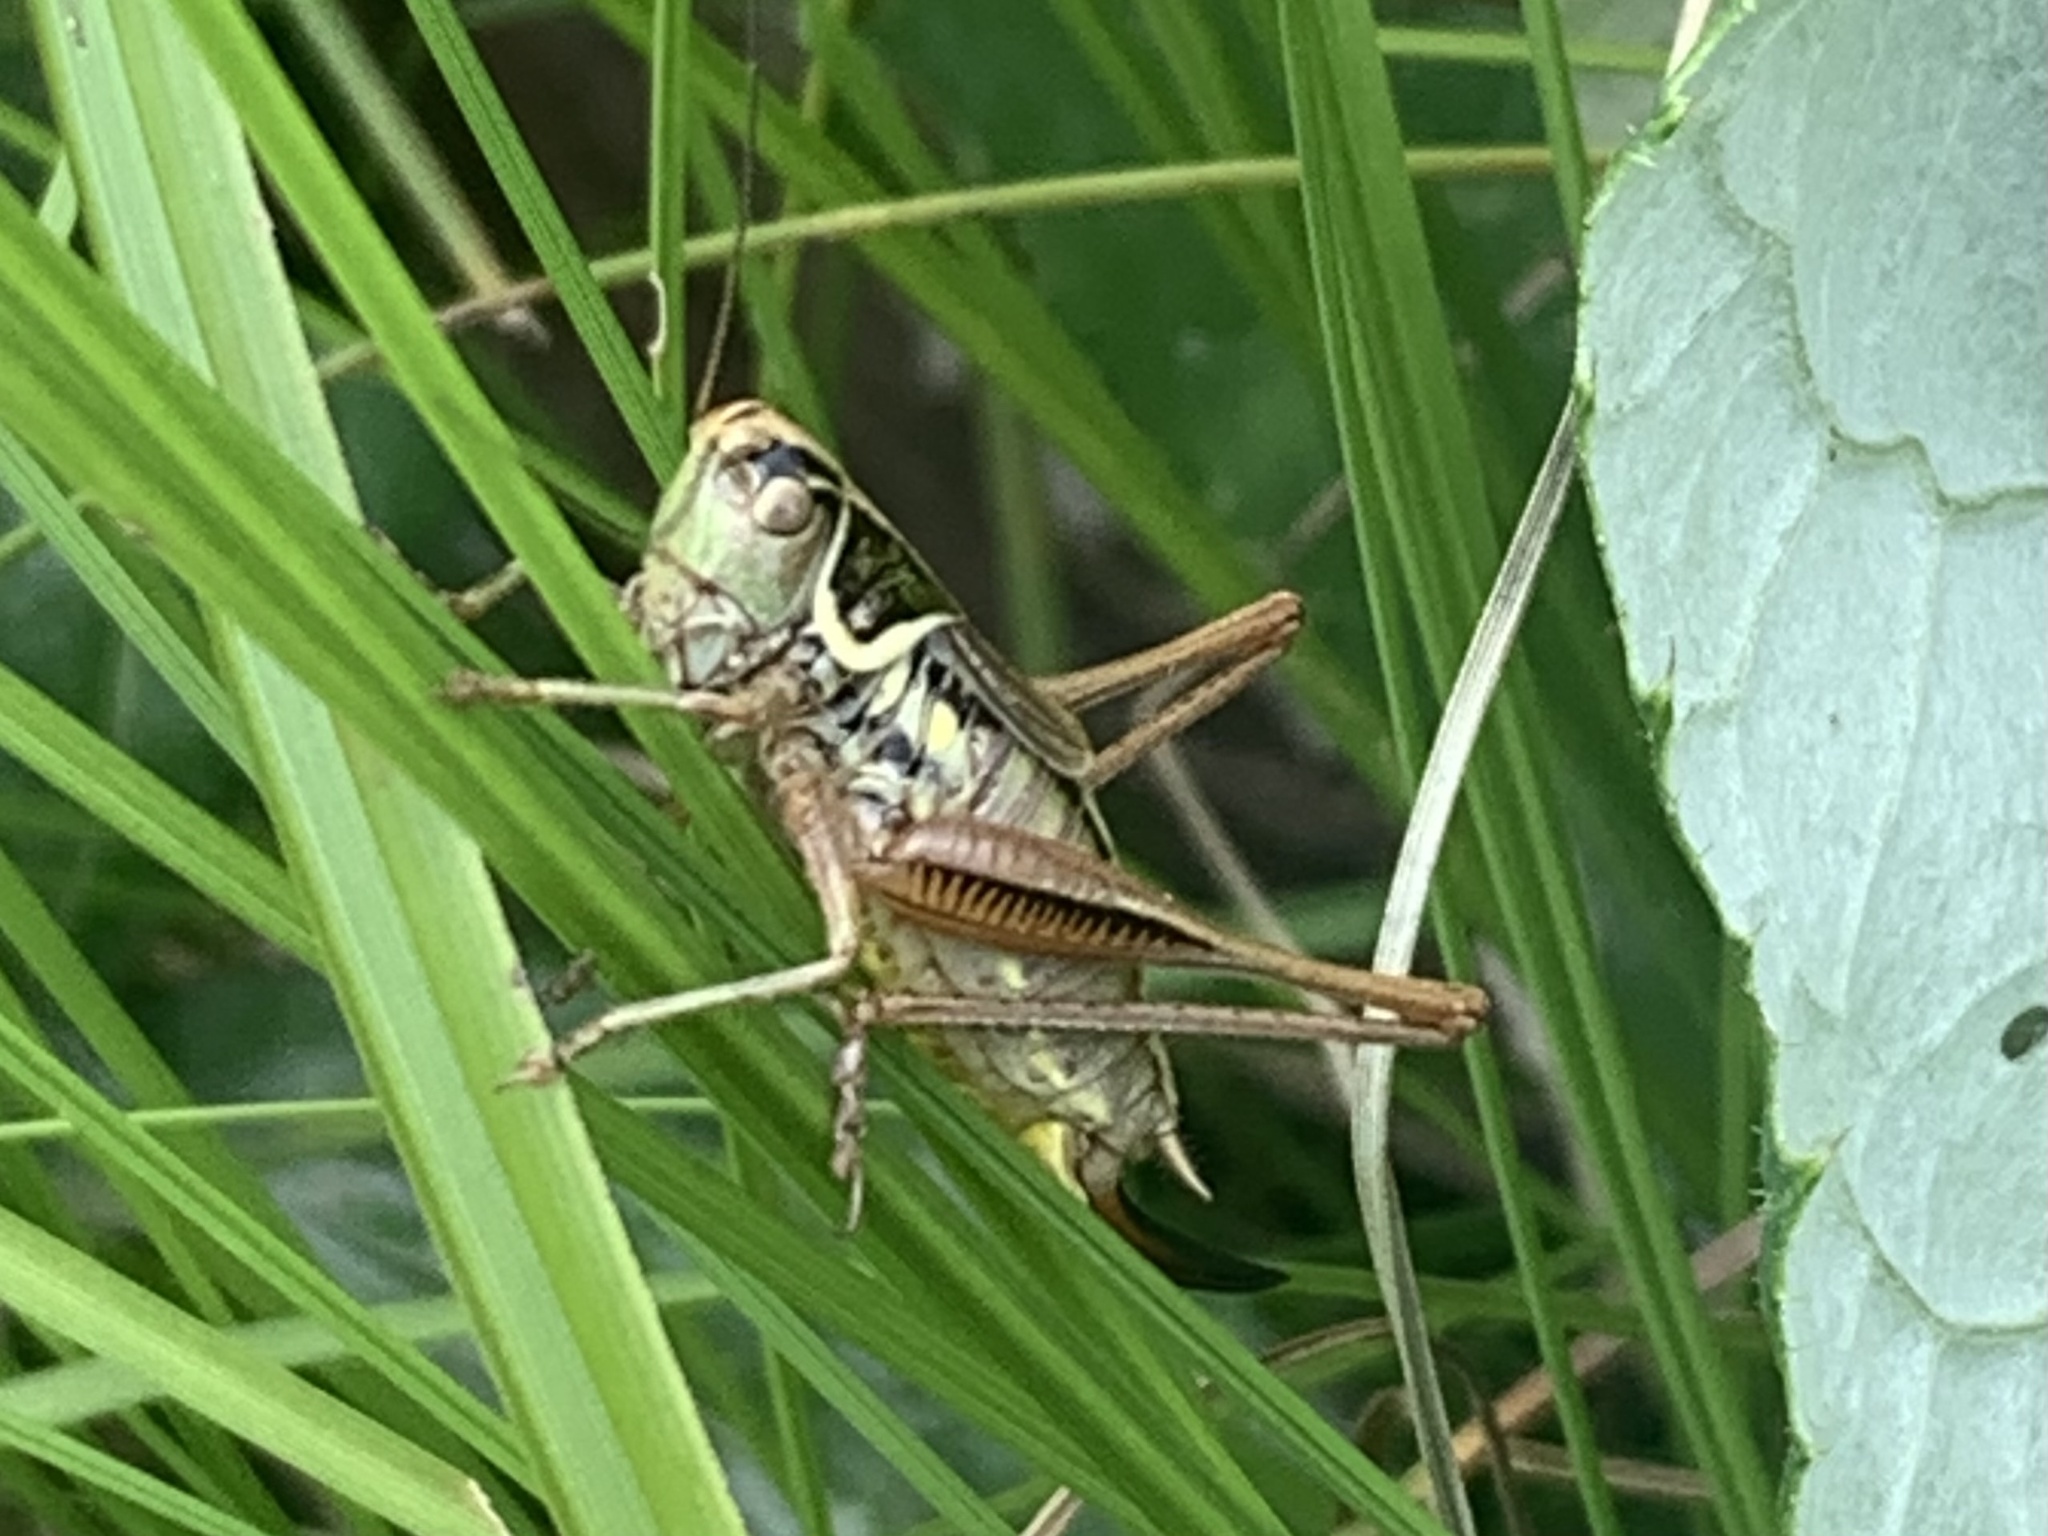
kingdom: Animalia
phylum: Arthropoda
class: Insecta
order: Orthoptera
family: Tettigoniidae
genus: Roeseliana
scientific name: Roeseliana roeselii
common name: Roesel's bush cricket
